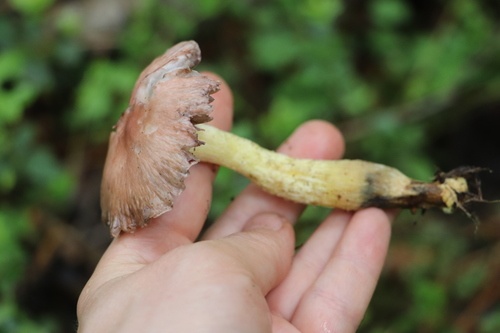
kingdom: Fungi
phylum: Basidiomycota
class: Agaricomycetes
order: Boletales
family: Gomphidiaceae
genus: Gomphidius
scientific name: Gomphidius flavipes
